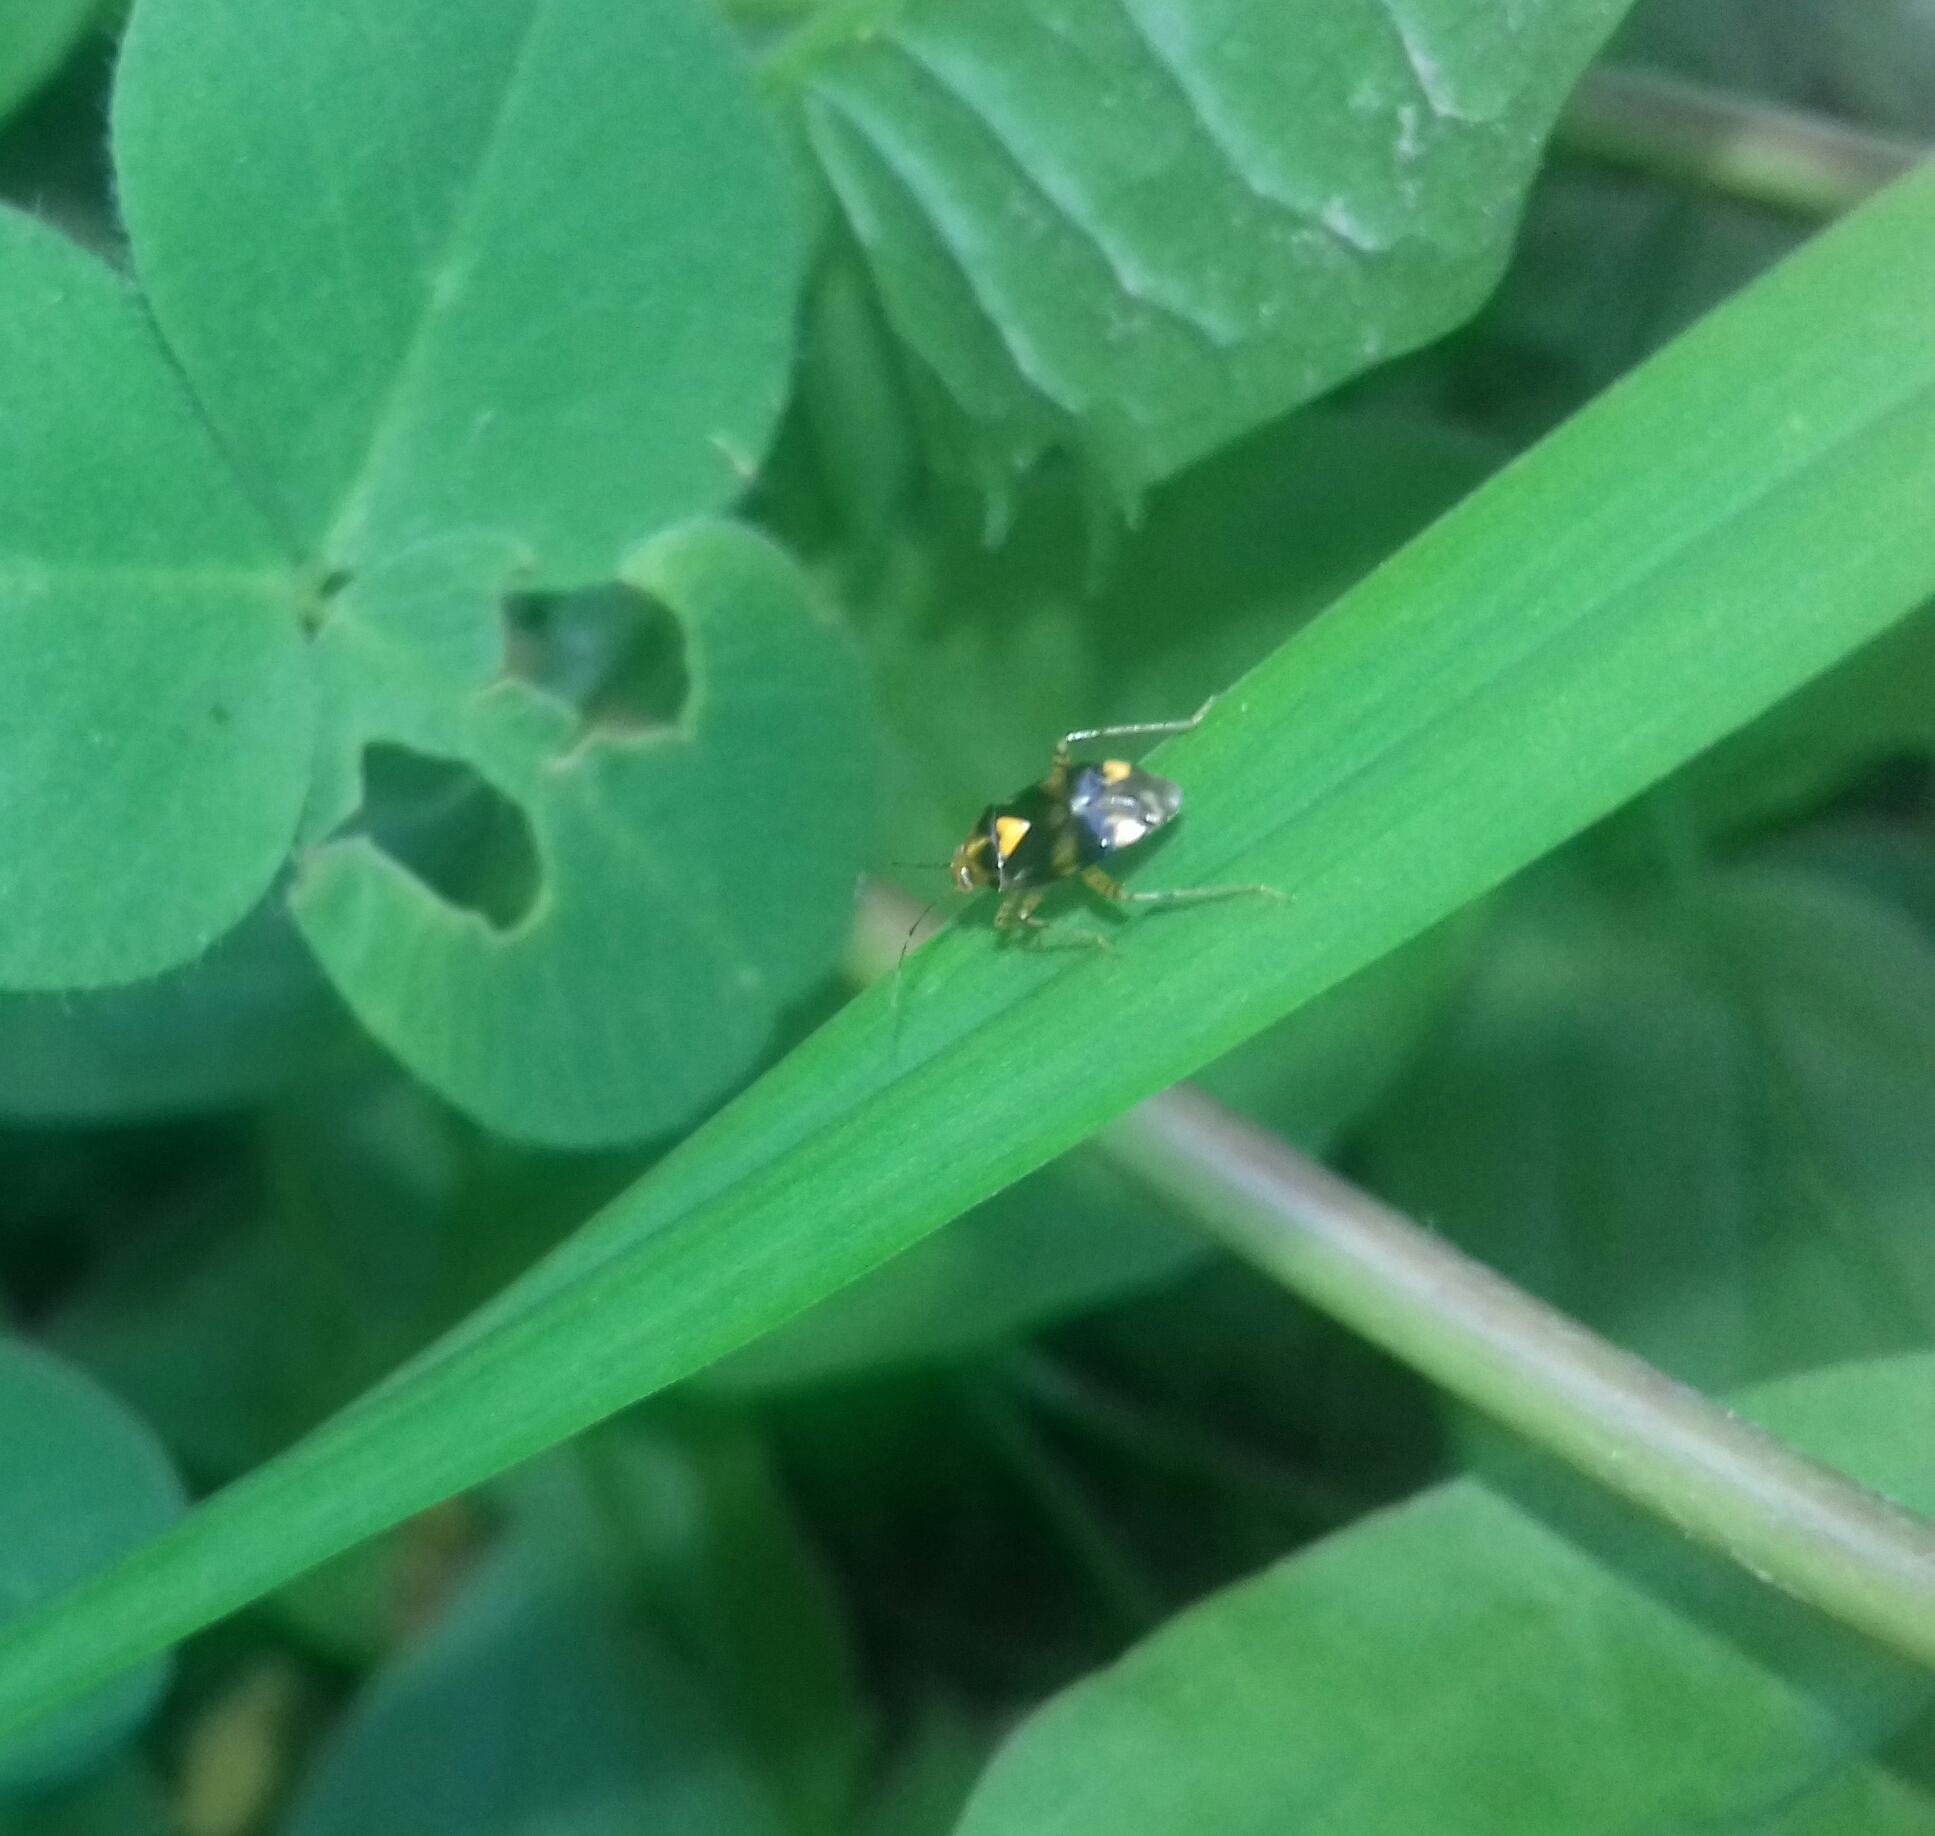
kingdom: Animalia
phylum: Arthropoda
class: Insecta
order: Hemiptera
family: Miridae
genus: Liocoris
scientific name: Liocoris tripustulatus
